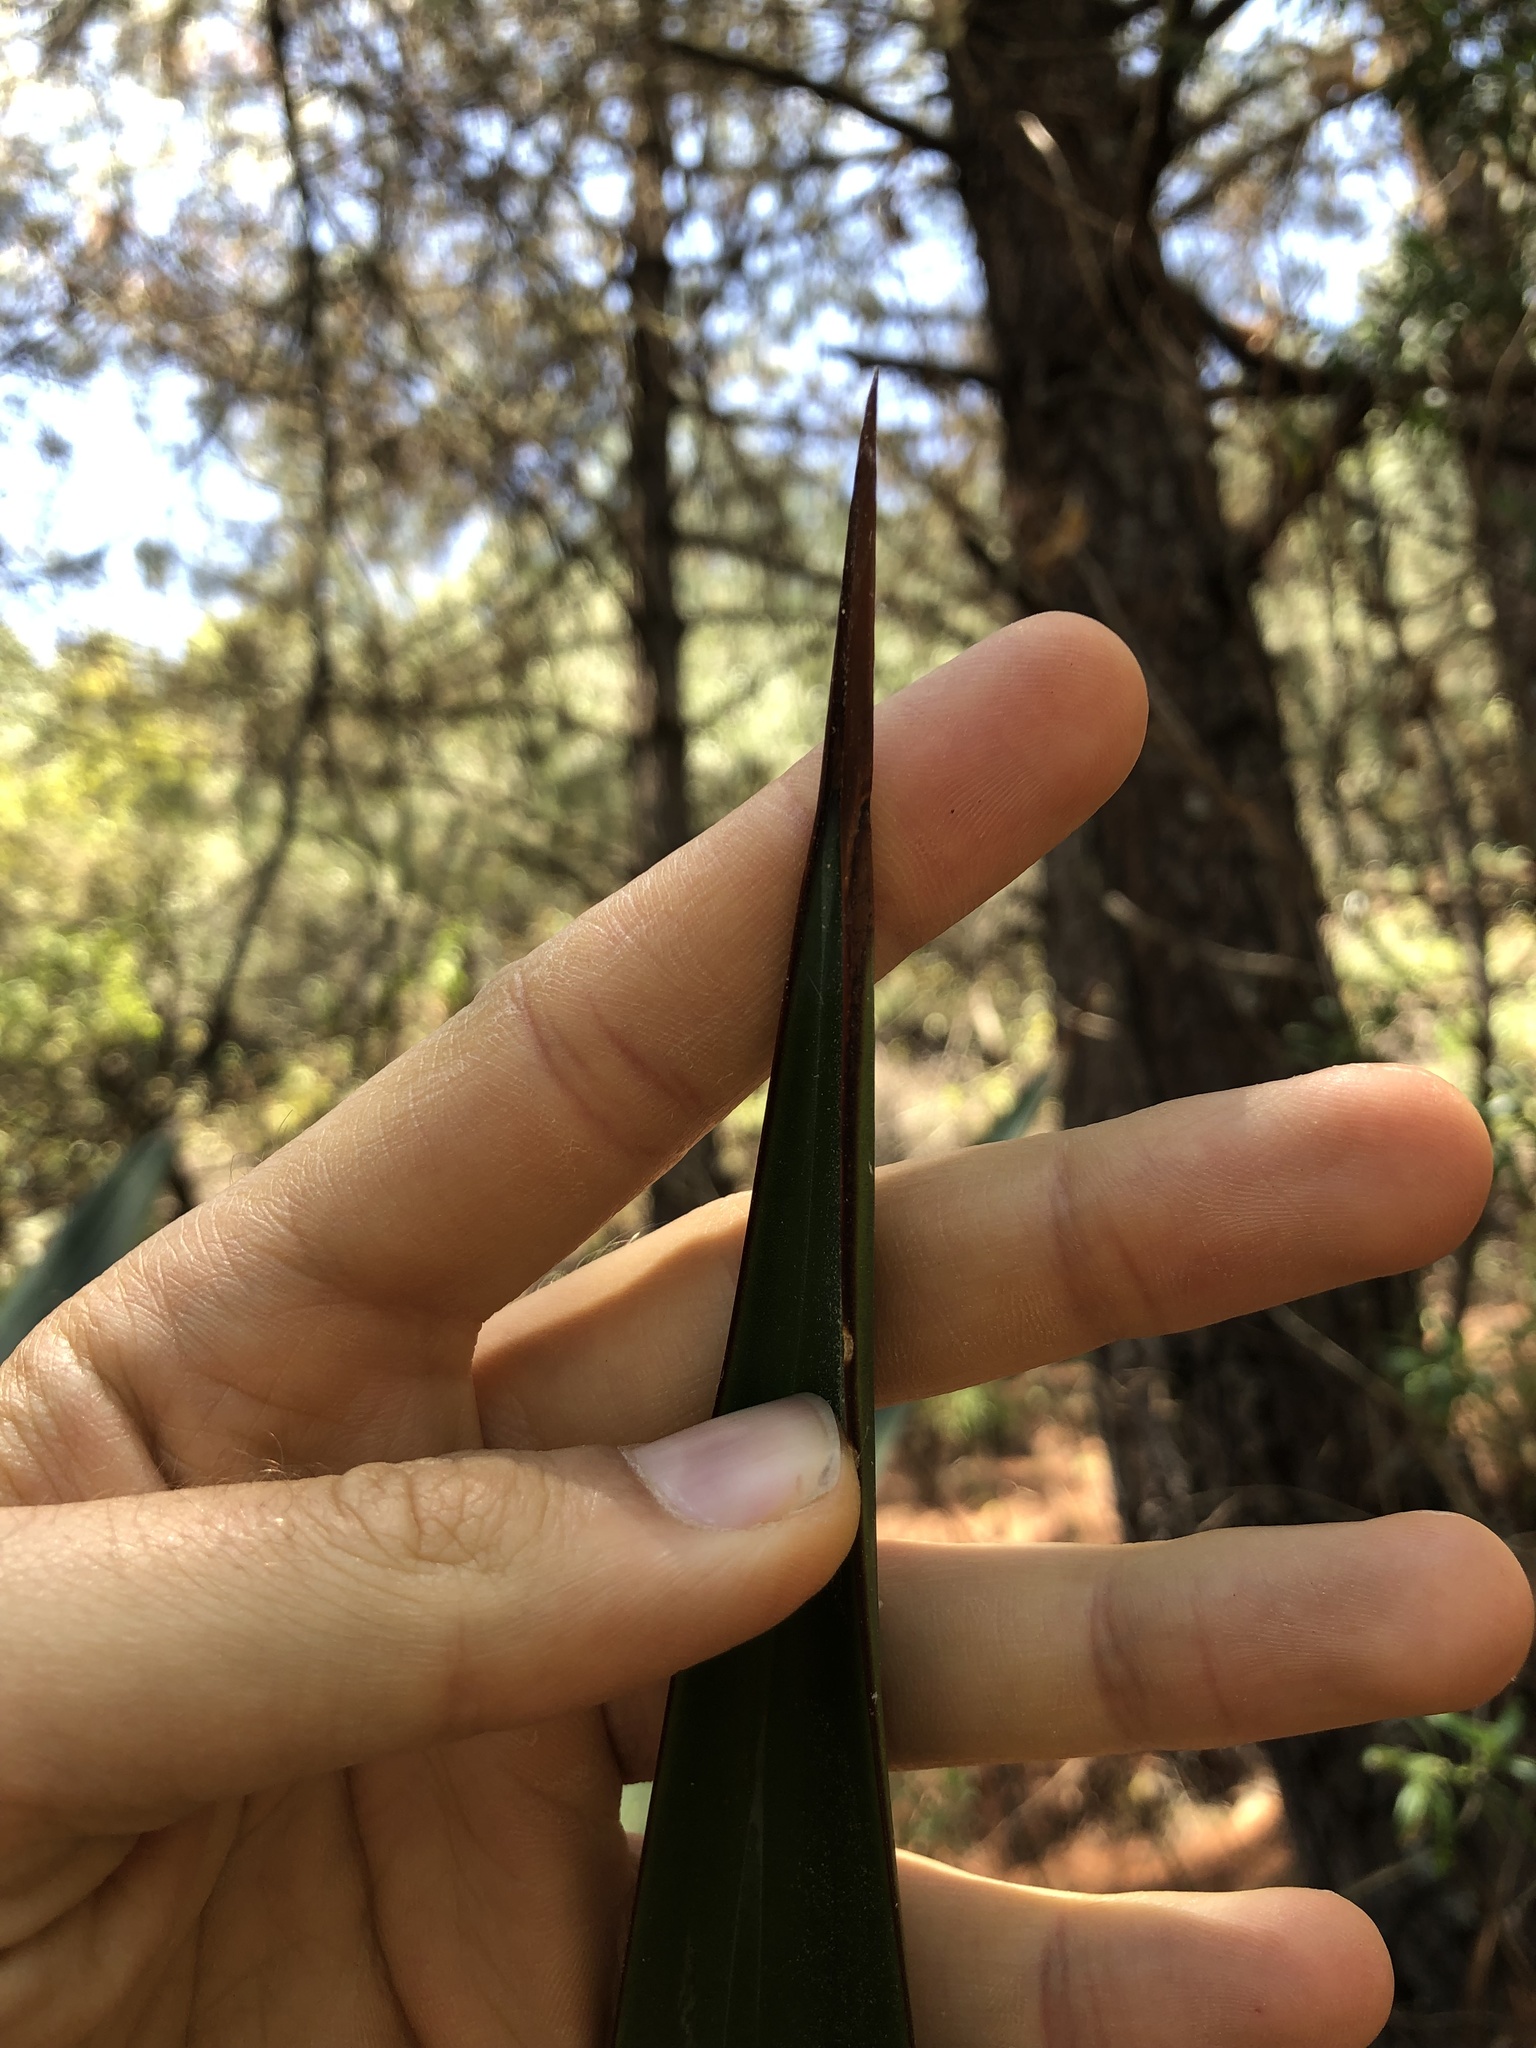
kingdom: Plantae
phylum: Tracheophyta
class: Liliopsida
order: Asparagales
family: Asparagaceae
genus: Agave
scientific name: Agave atrovirens
